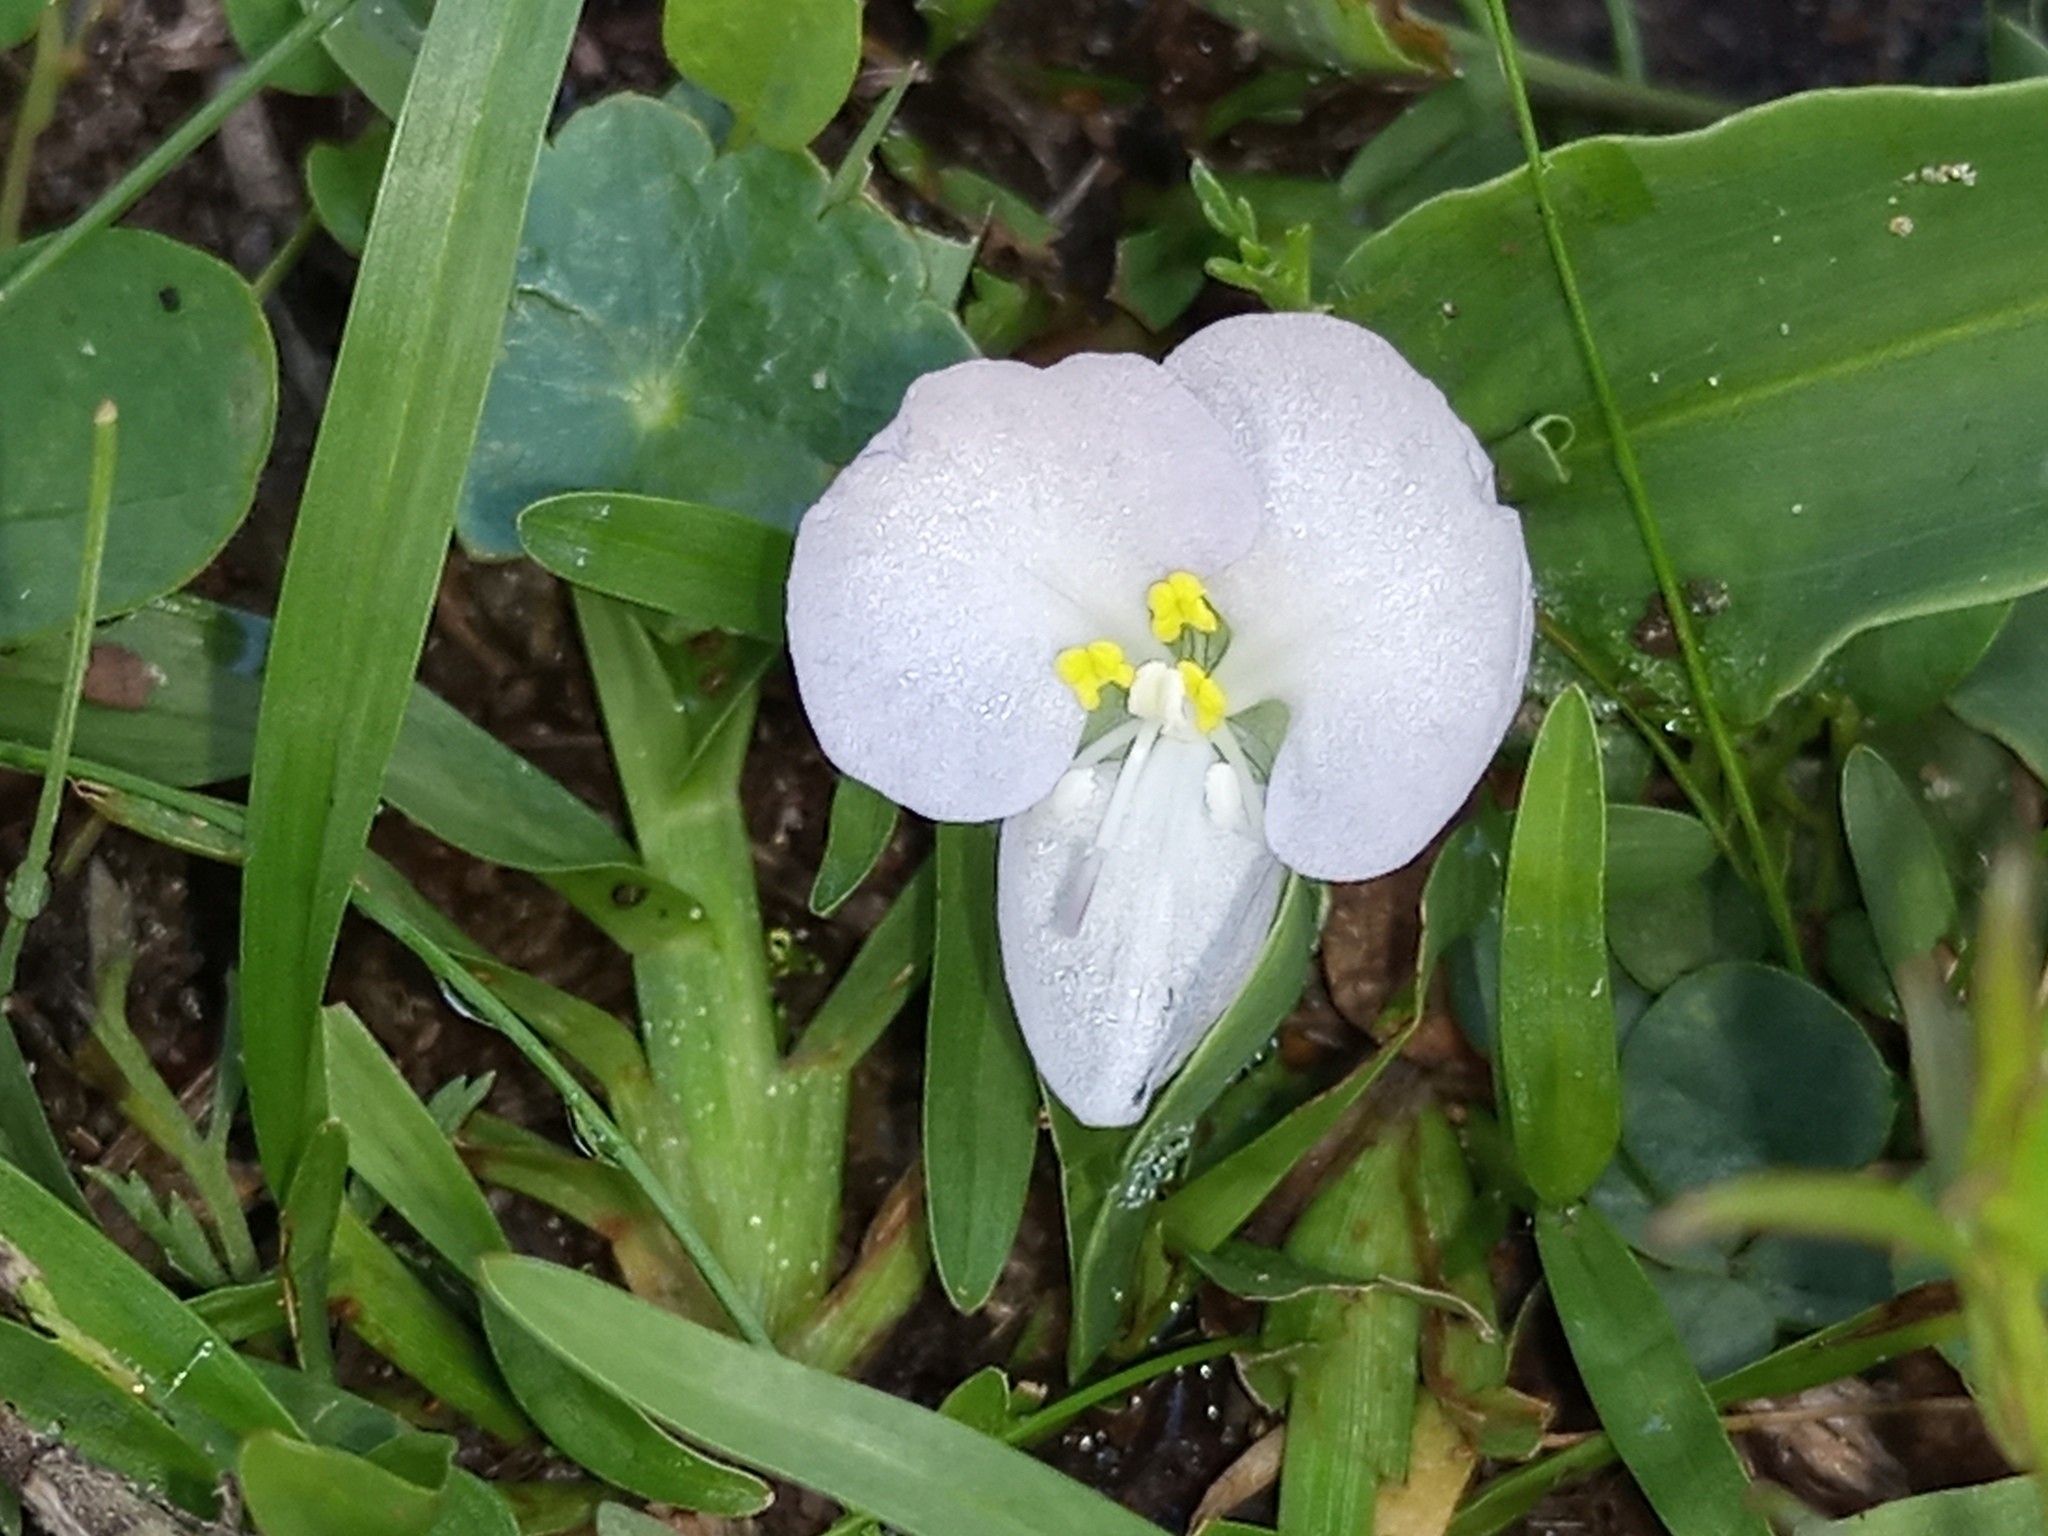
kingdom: Plantae
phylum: Tracheophyta
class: Liliopsida
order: Commelinales
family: Commelinaceae
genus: Commelina
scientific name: Commelina platyphylla
